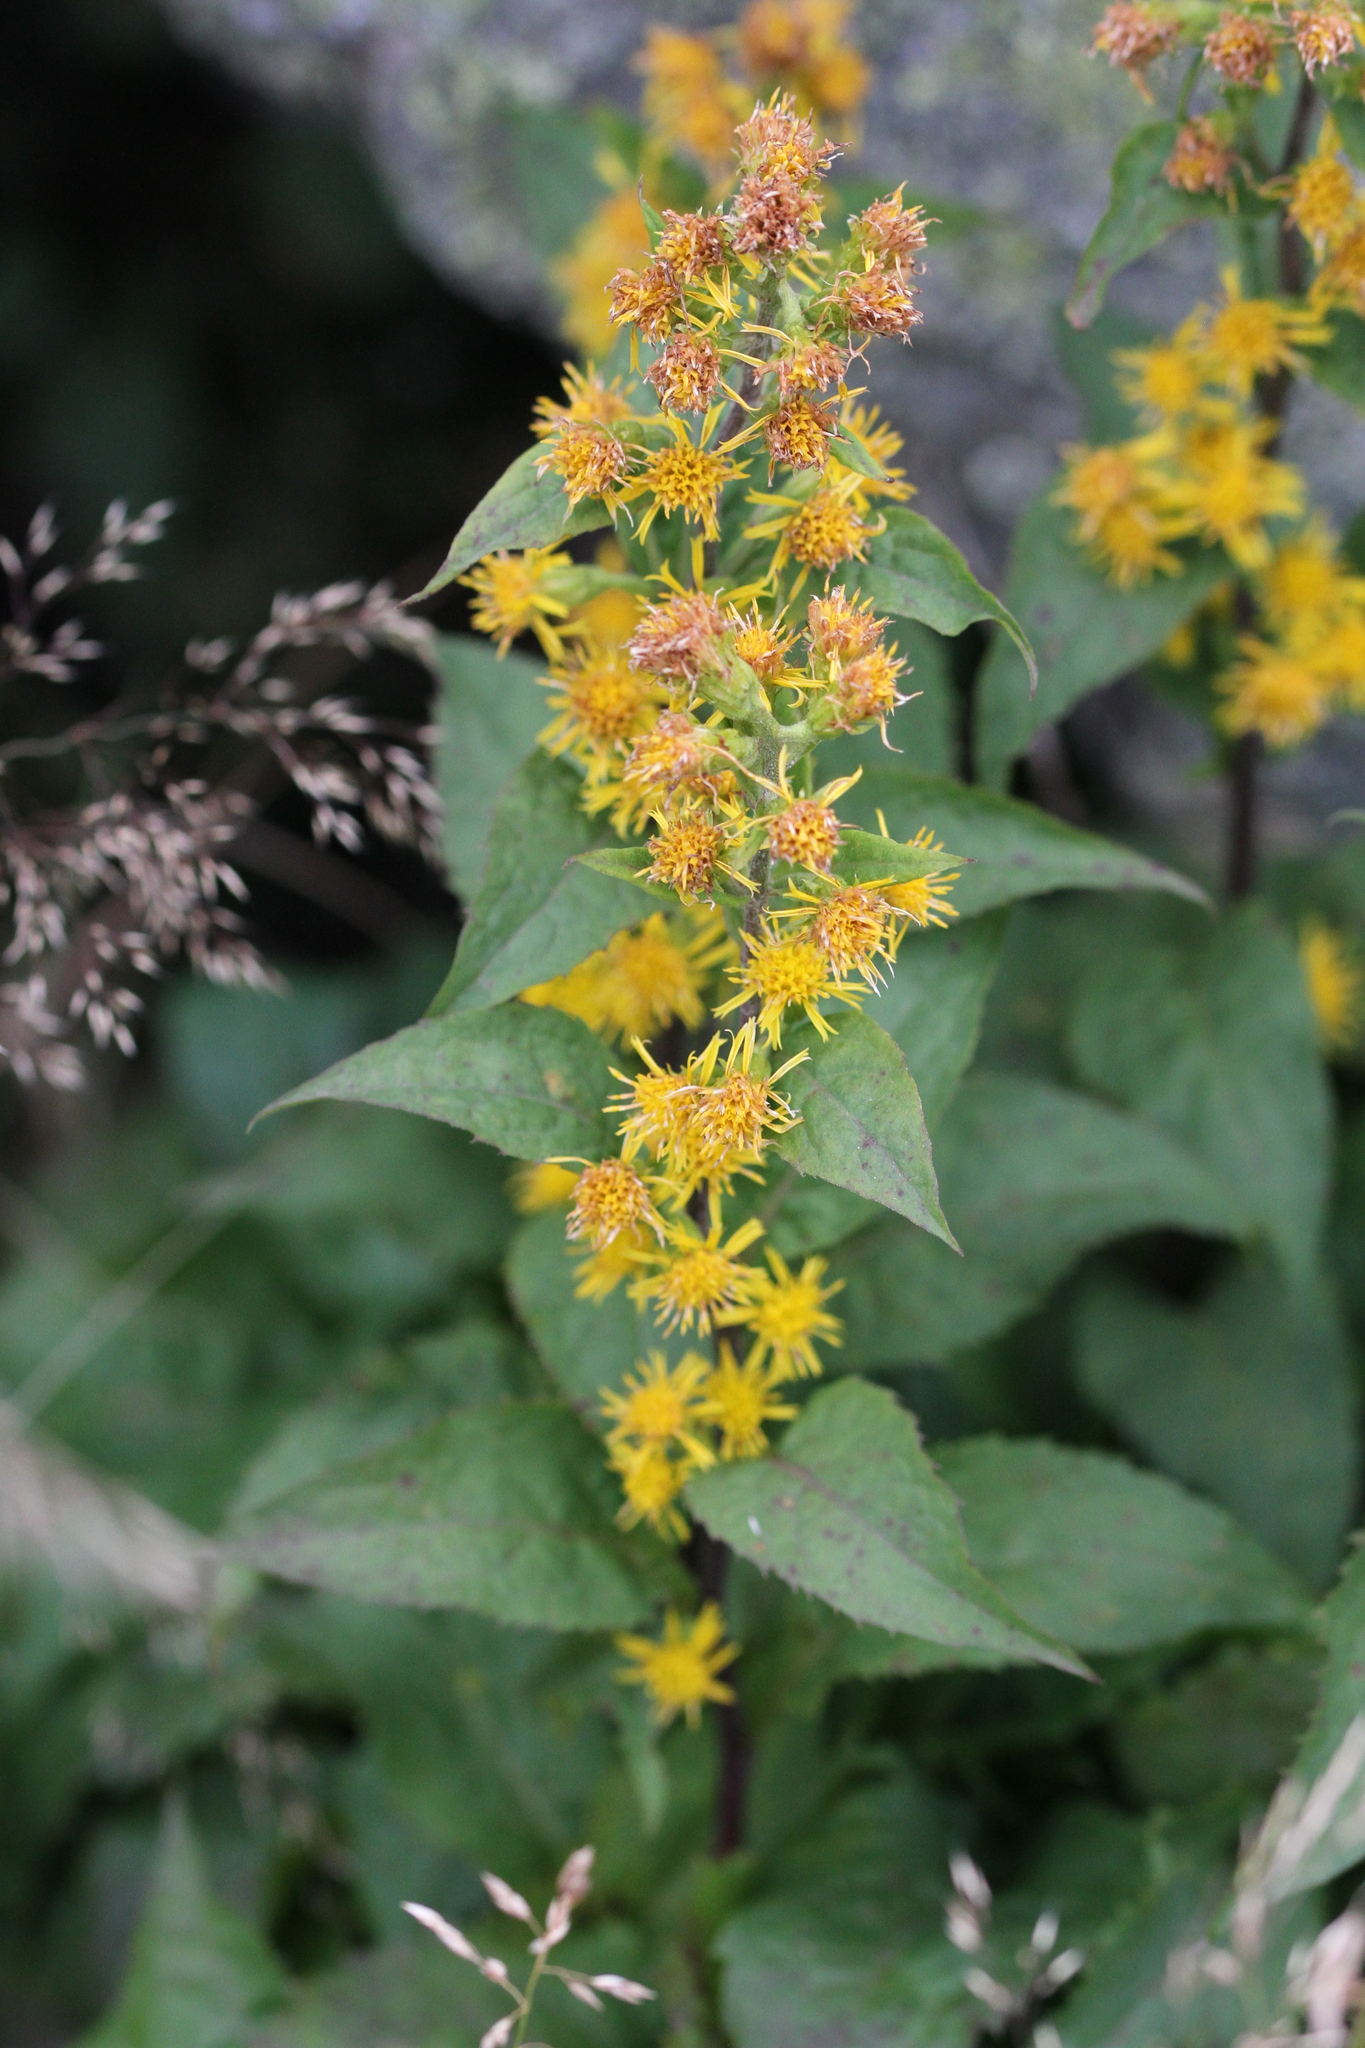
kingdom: Plantae
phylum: Tracheophyta
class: Magnoliopsida
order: Asterales
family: Asteraceae
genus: Solidago
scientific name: Solidago macrophylla
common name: Large-leaved goldenrod
